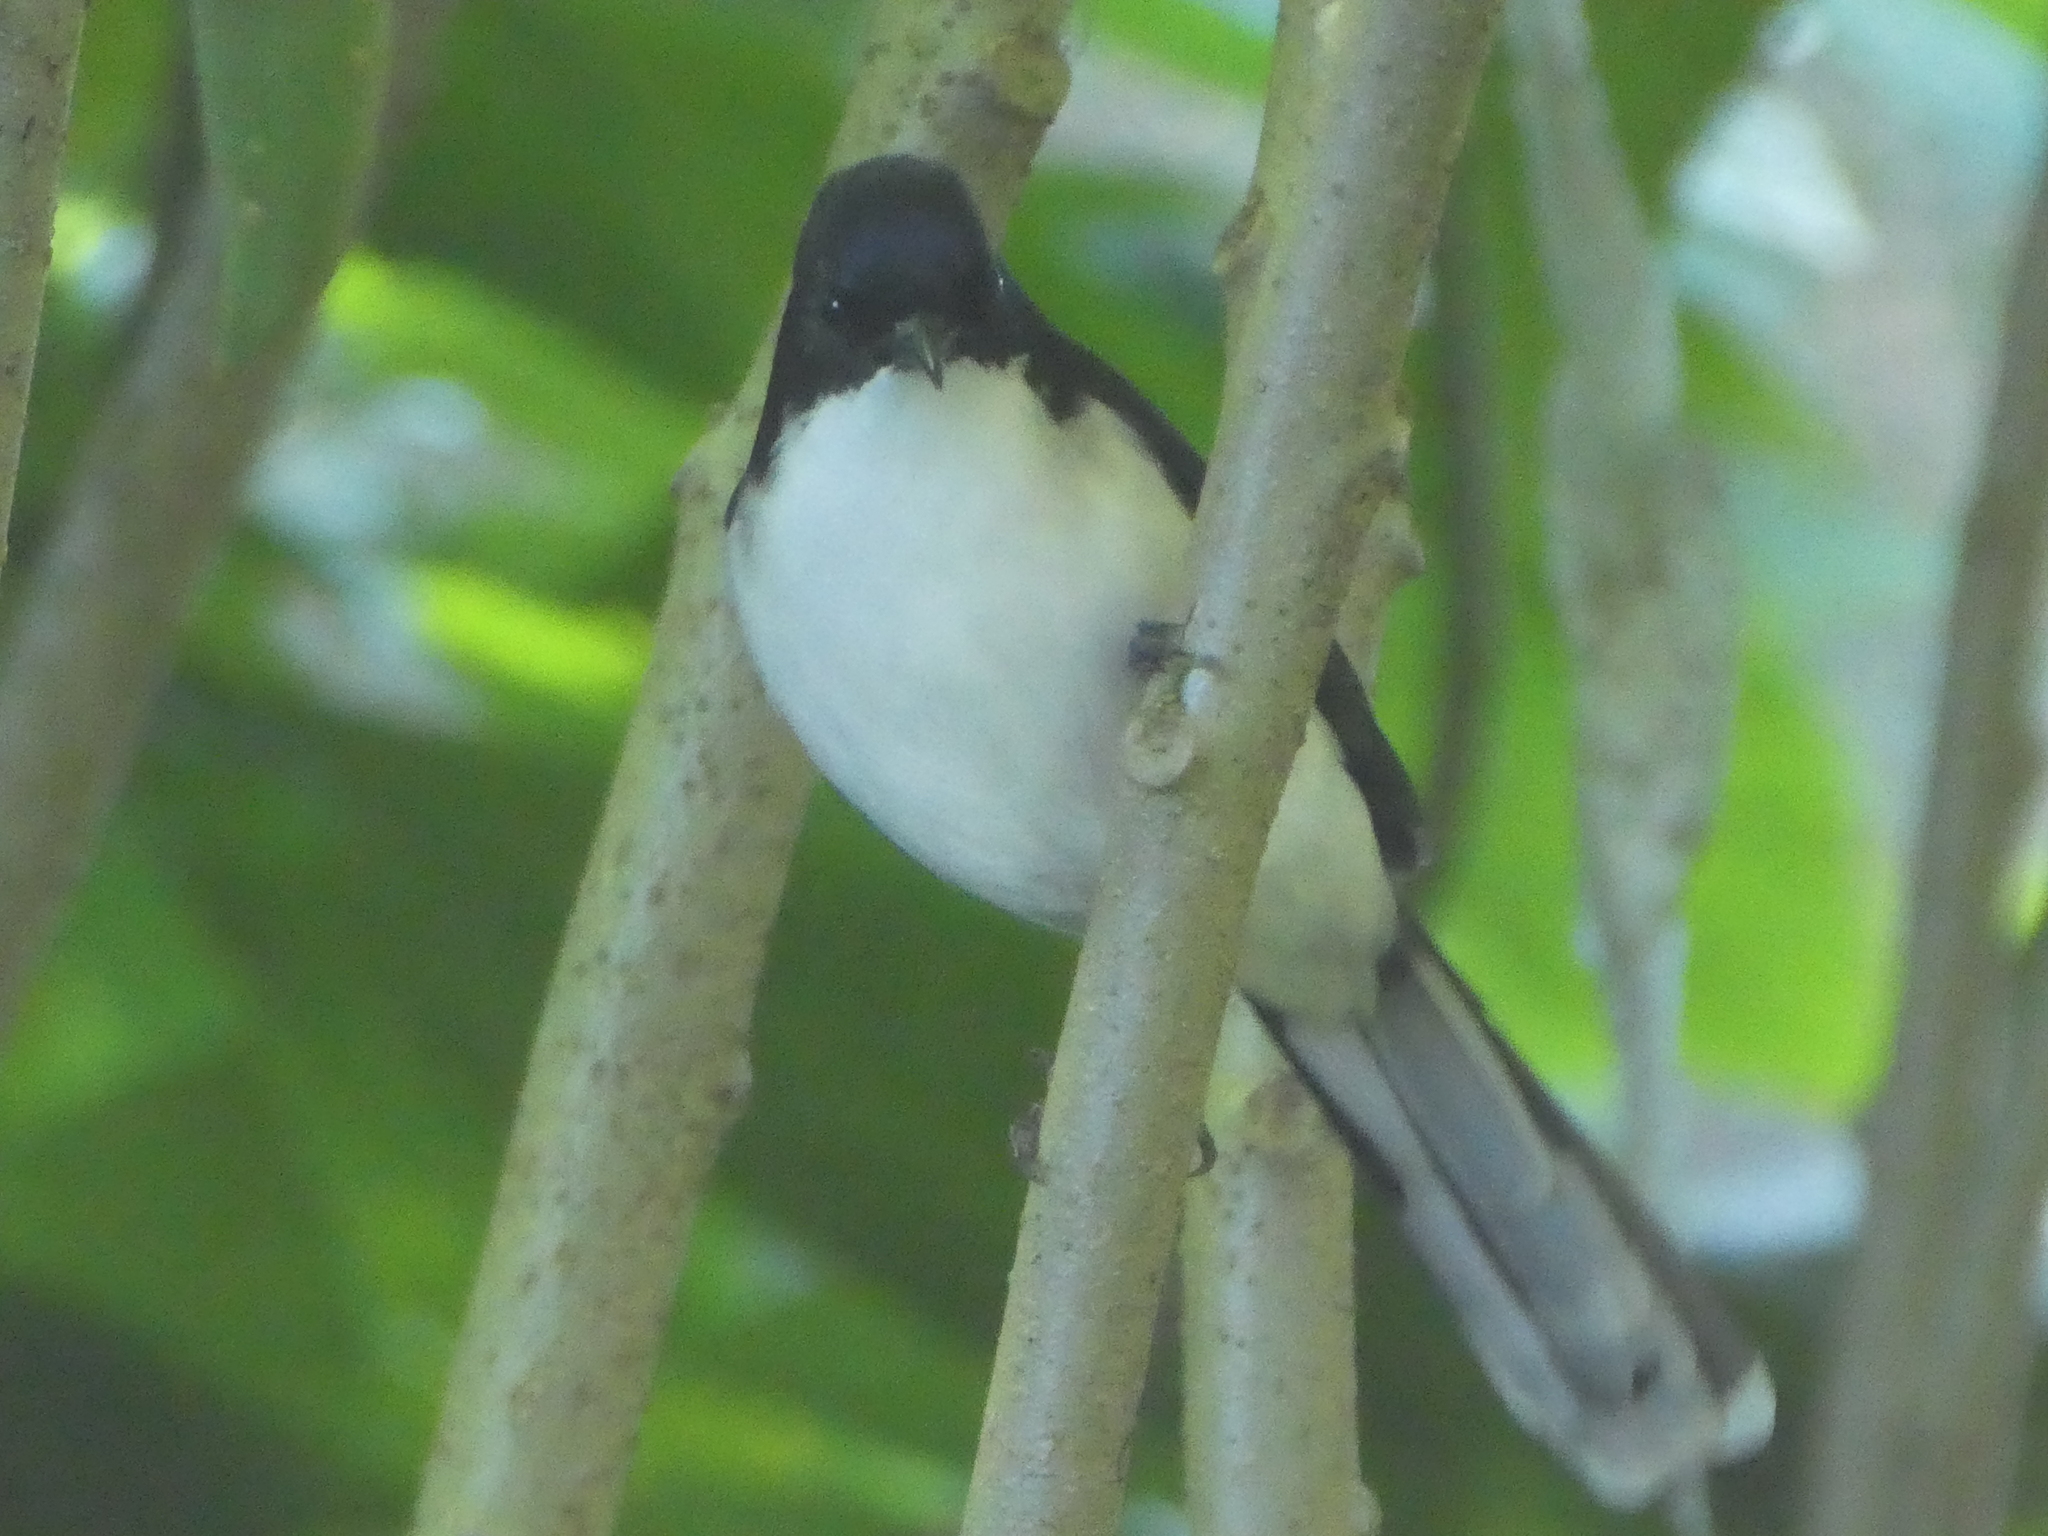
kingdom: Animalia
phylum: Chordata
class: Aves
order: Passeriformes
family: Leiothrichidae
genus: Heterophasia
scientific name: Heterophasia melanoleuca
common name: Dark-backed sibia
